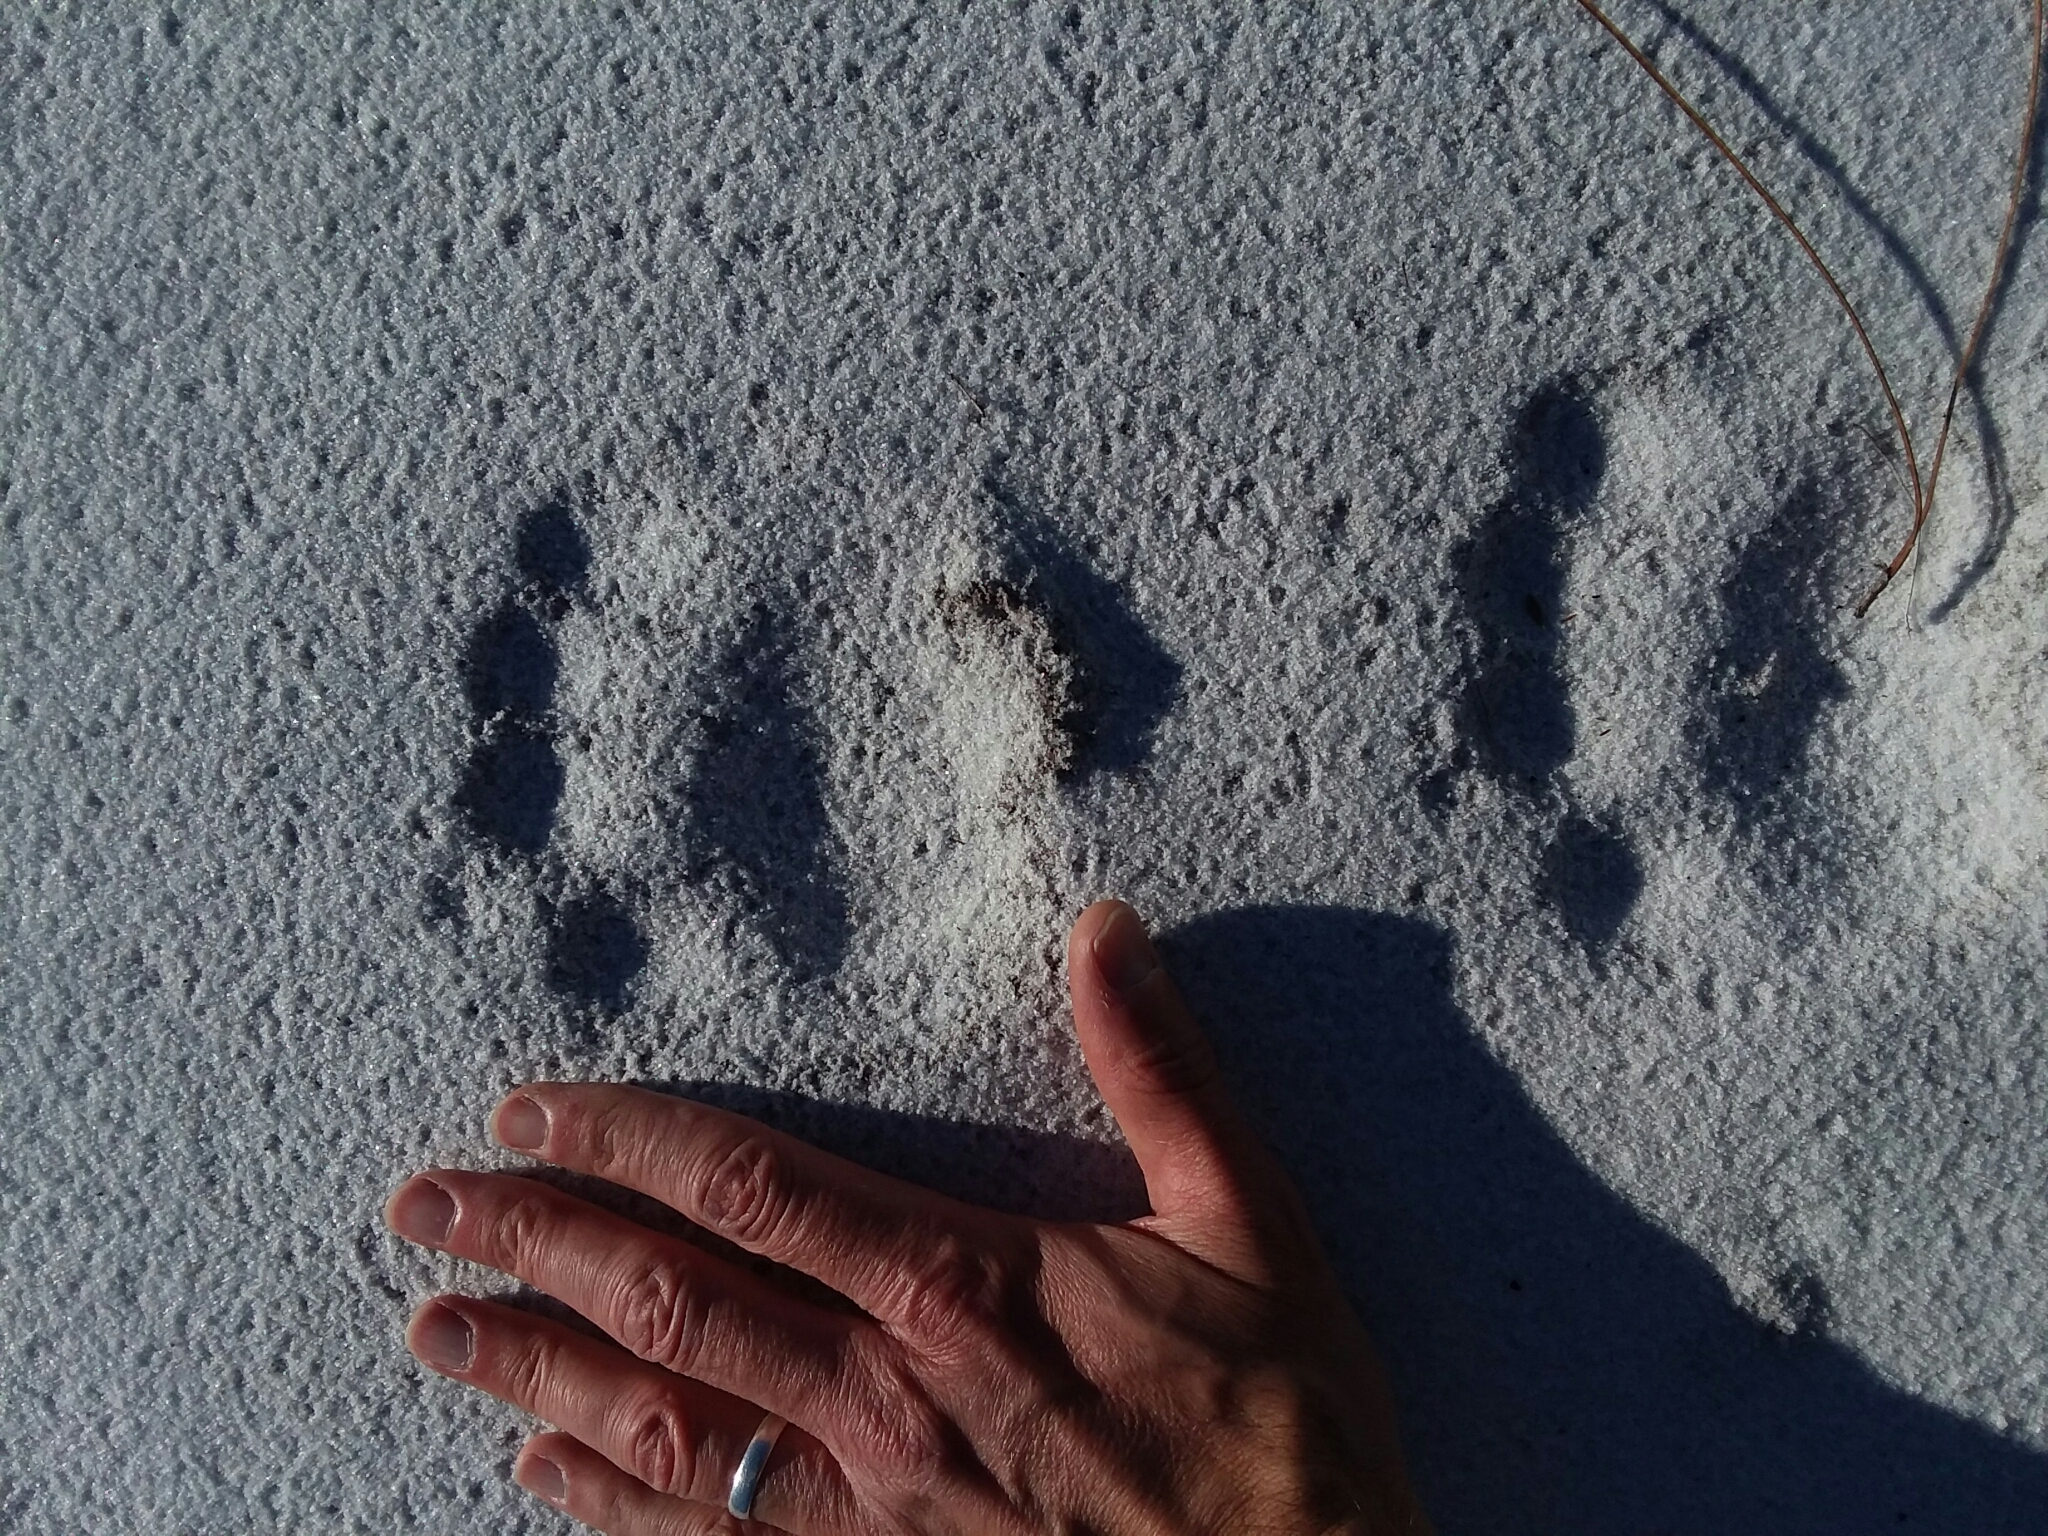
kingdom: Animalia
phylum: Chordata
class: Mammalia
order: Carnivora
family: Ursidae
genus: Ursus
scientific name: Ursus americanus
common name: American black bear
